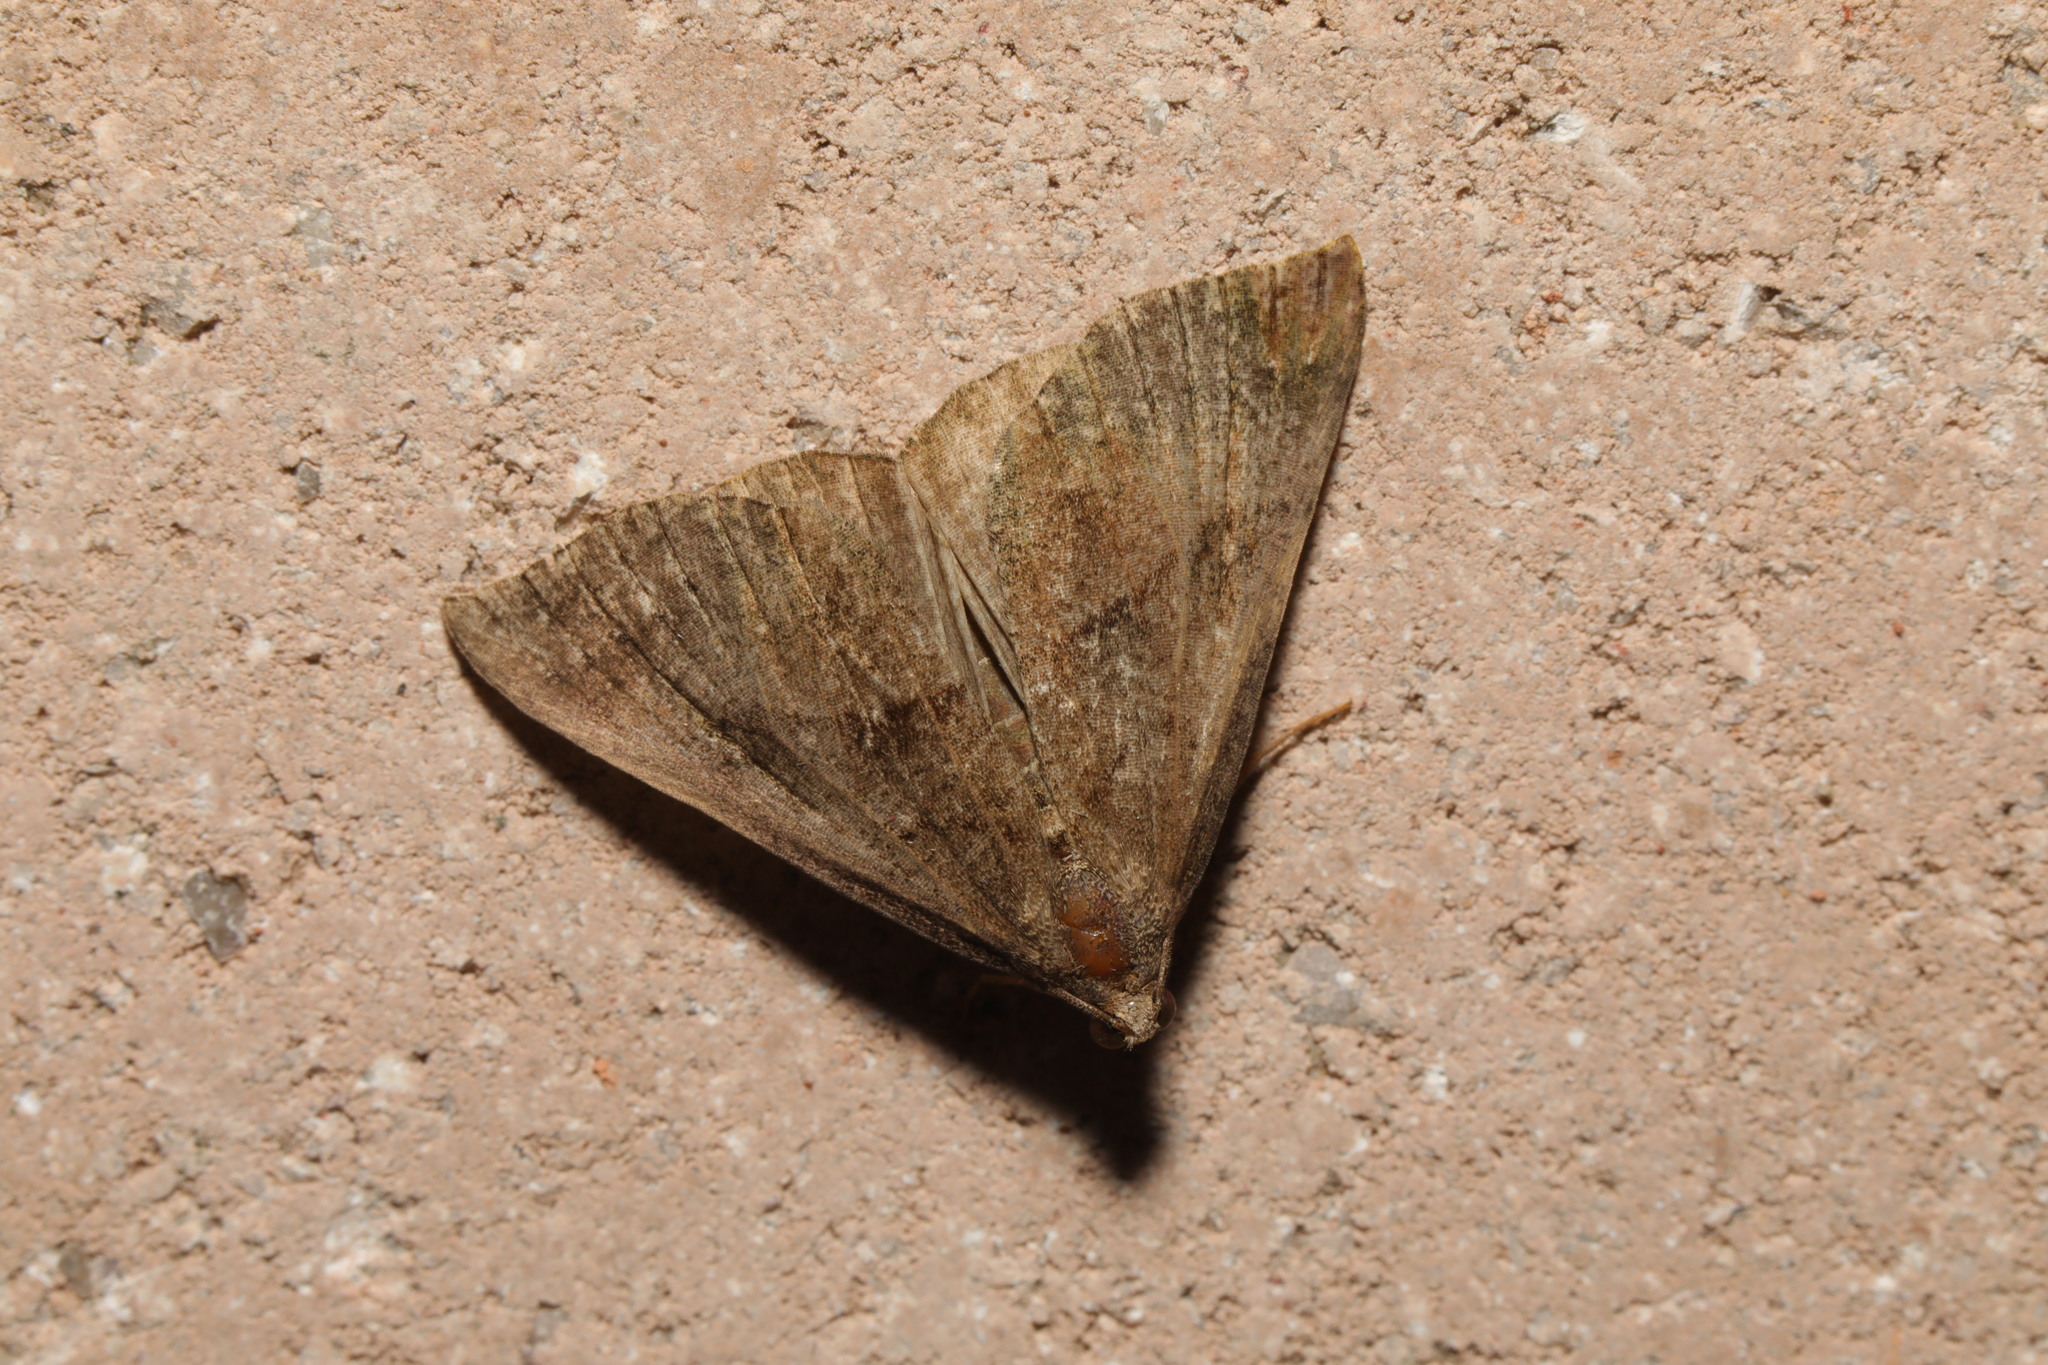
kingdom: Animalia
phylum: Arthropoda
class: Insecta
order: Lepidoptera
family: Erebidae
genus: Hypena
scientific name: Hypena proboscidalis
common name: Snout
